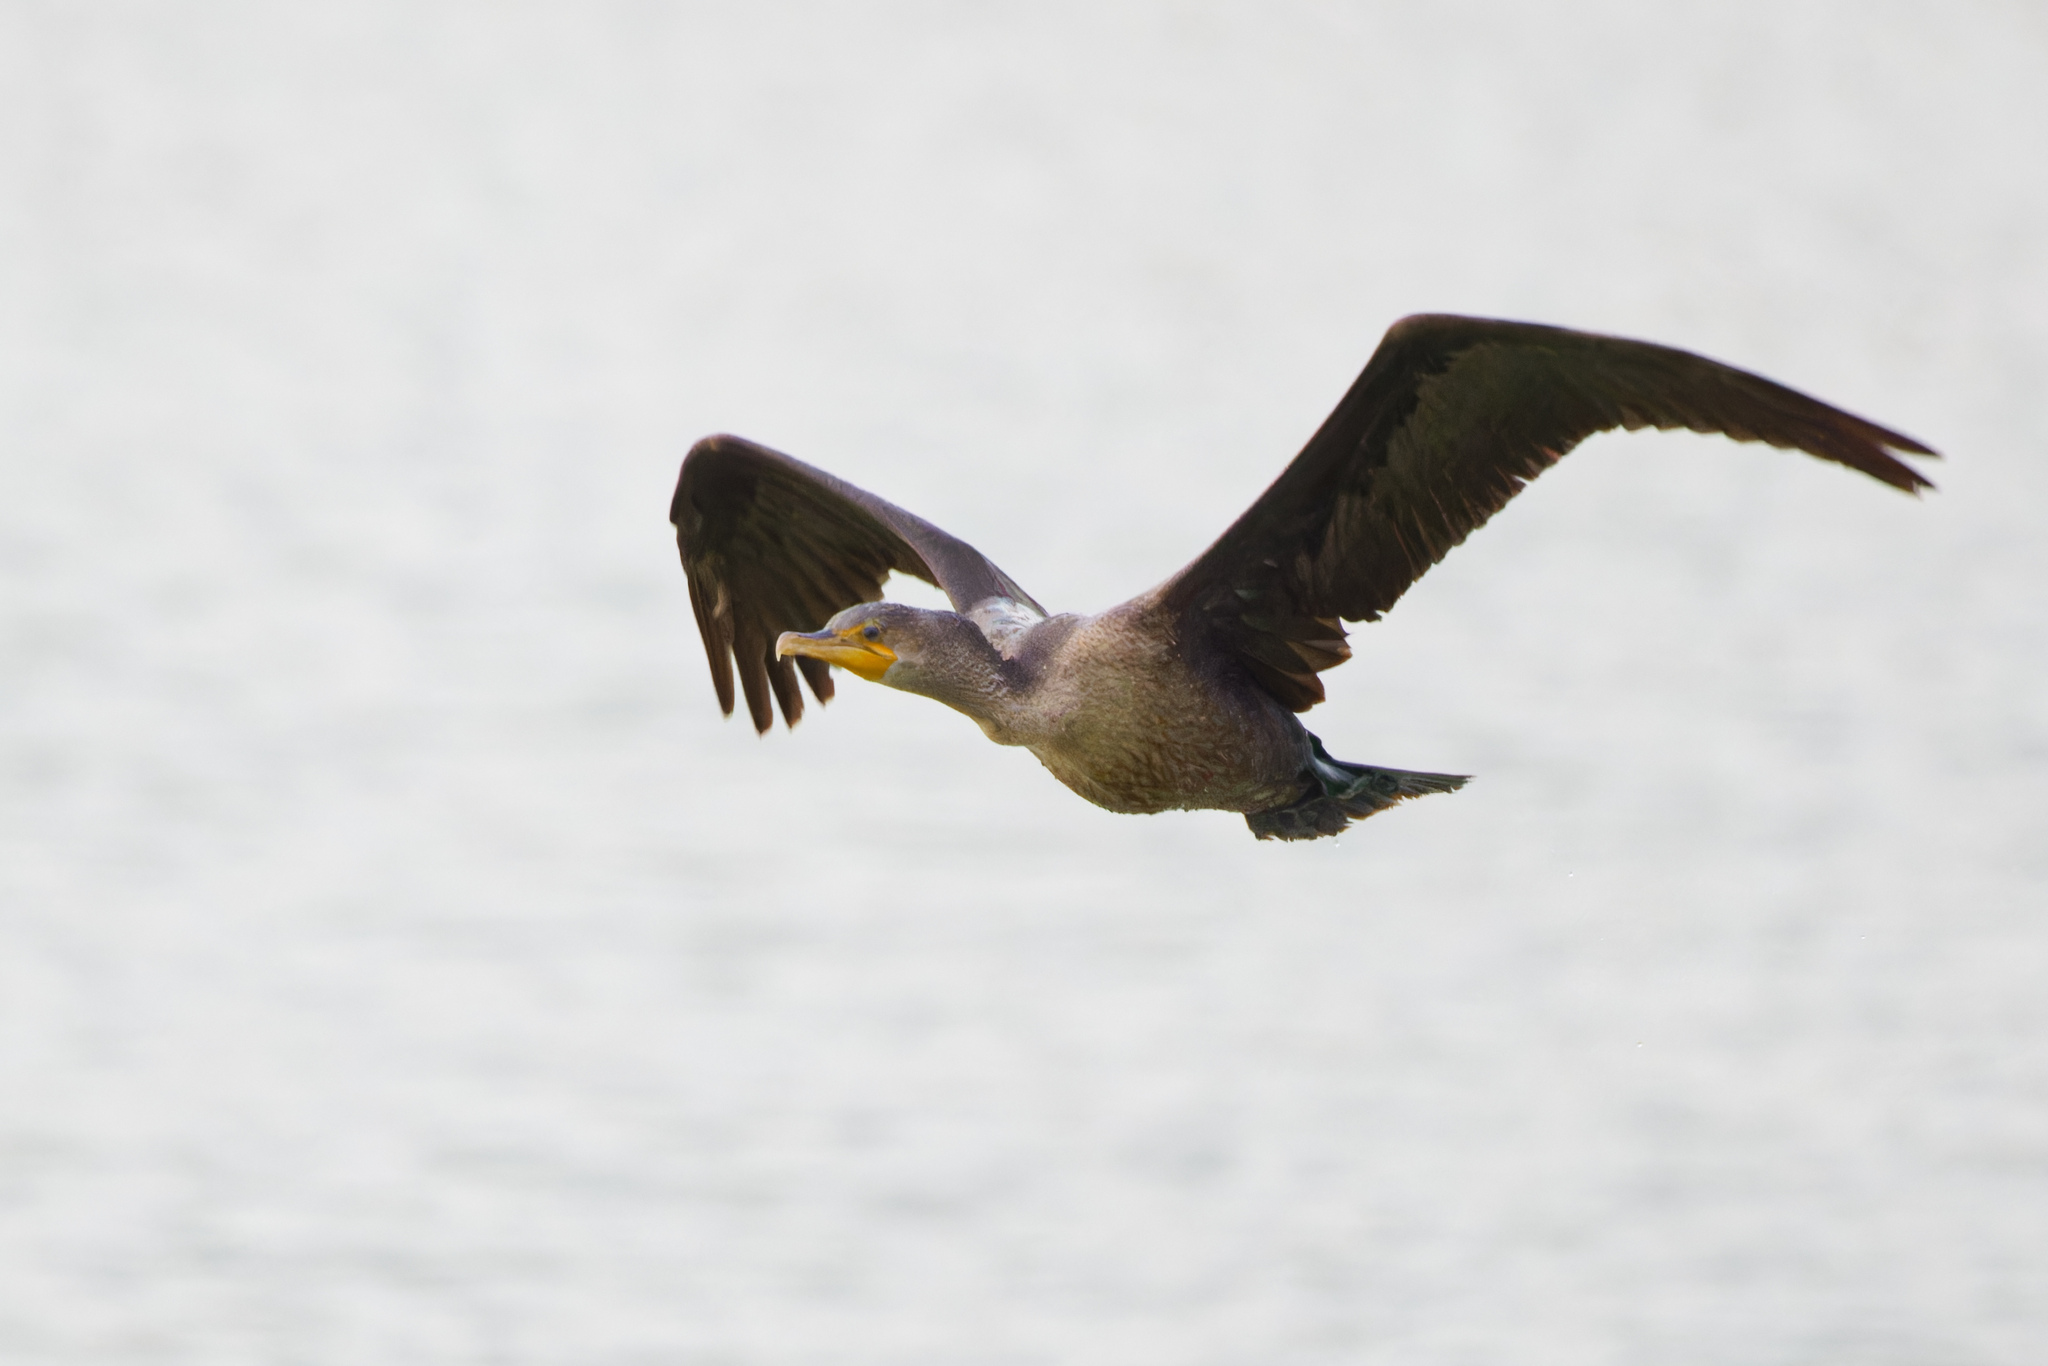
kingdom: Animalia
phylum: Chordata
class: Aves
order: Suliformes
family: Phalacrocoracidae
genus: Phalacrocorax
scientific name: Phalacrocorax auritus
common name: Double-crested cormorant
